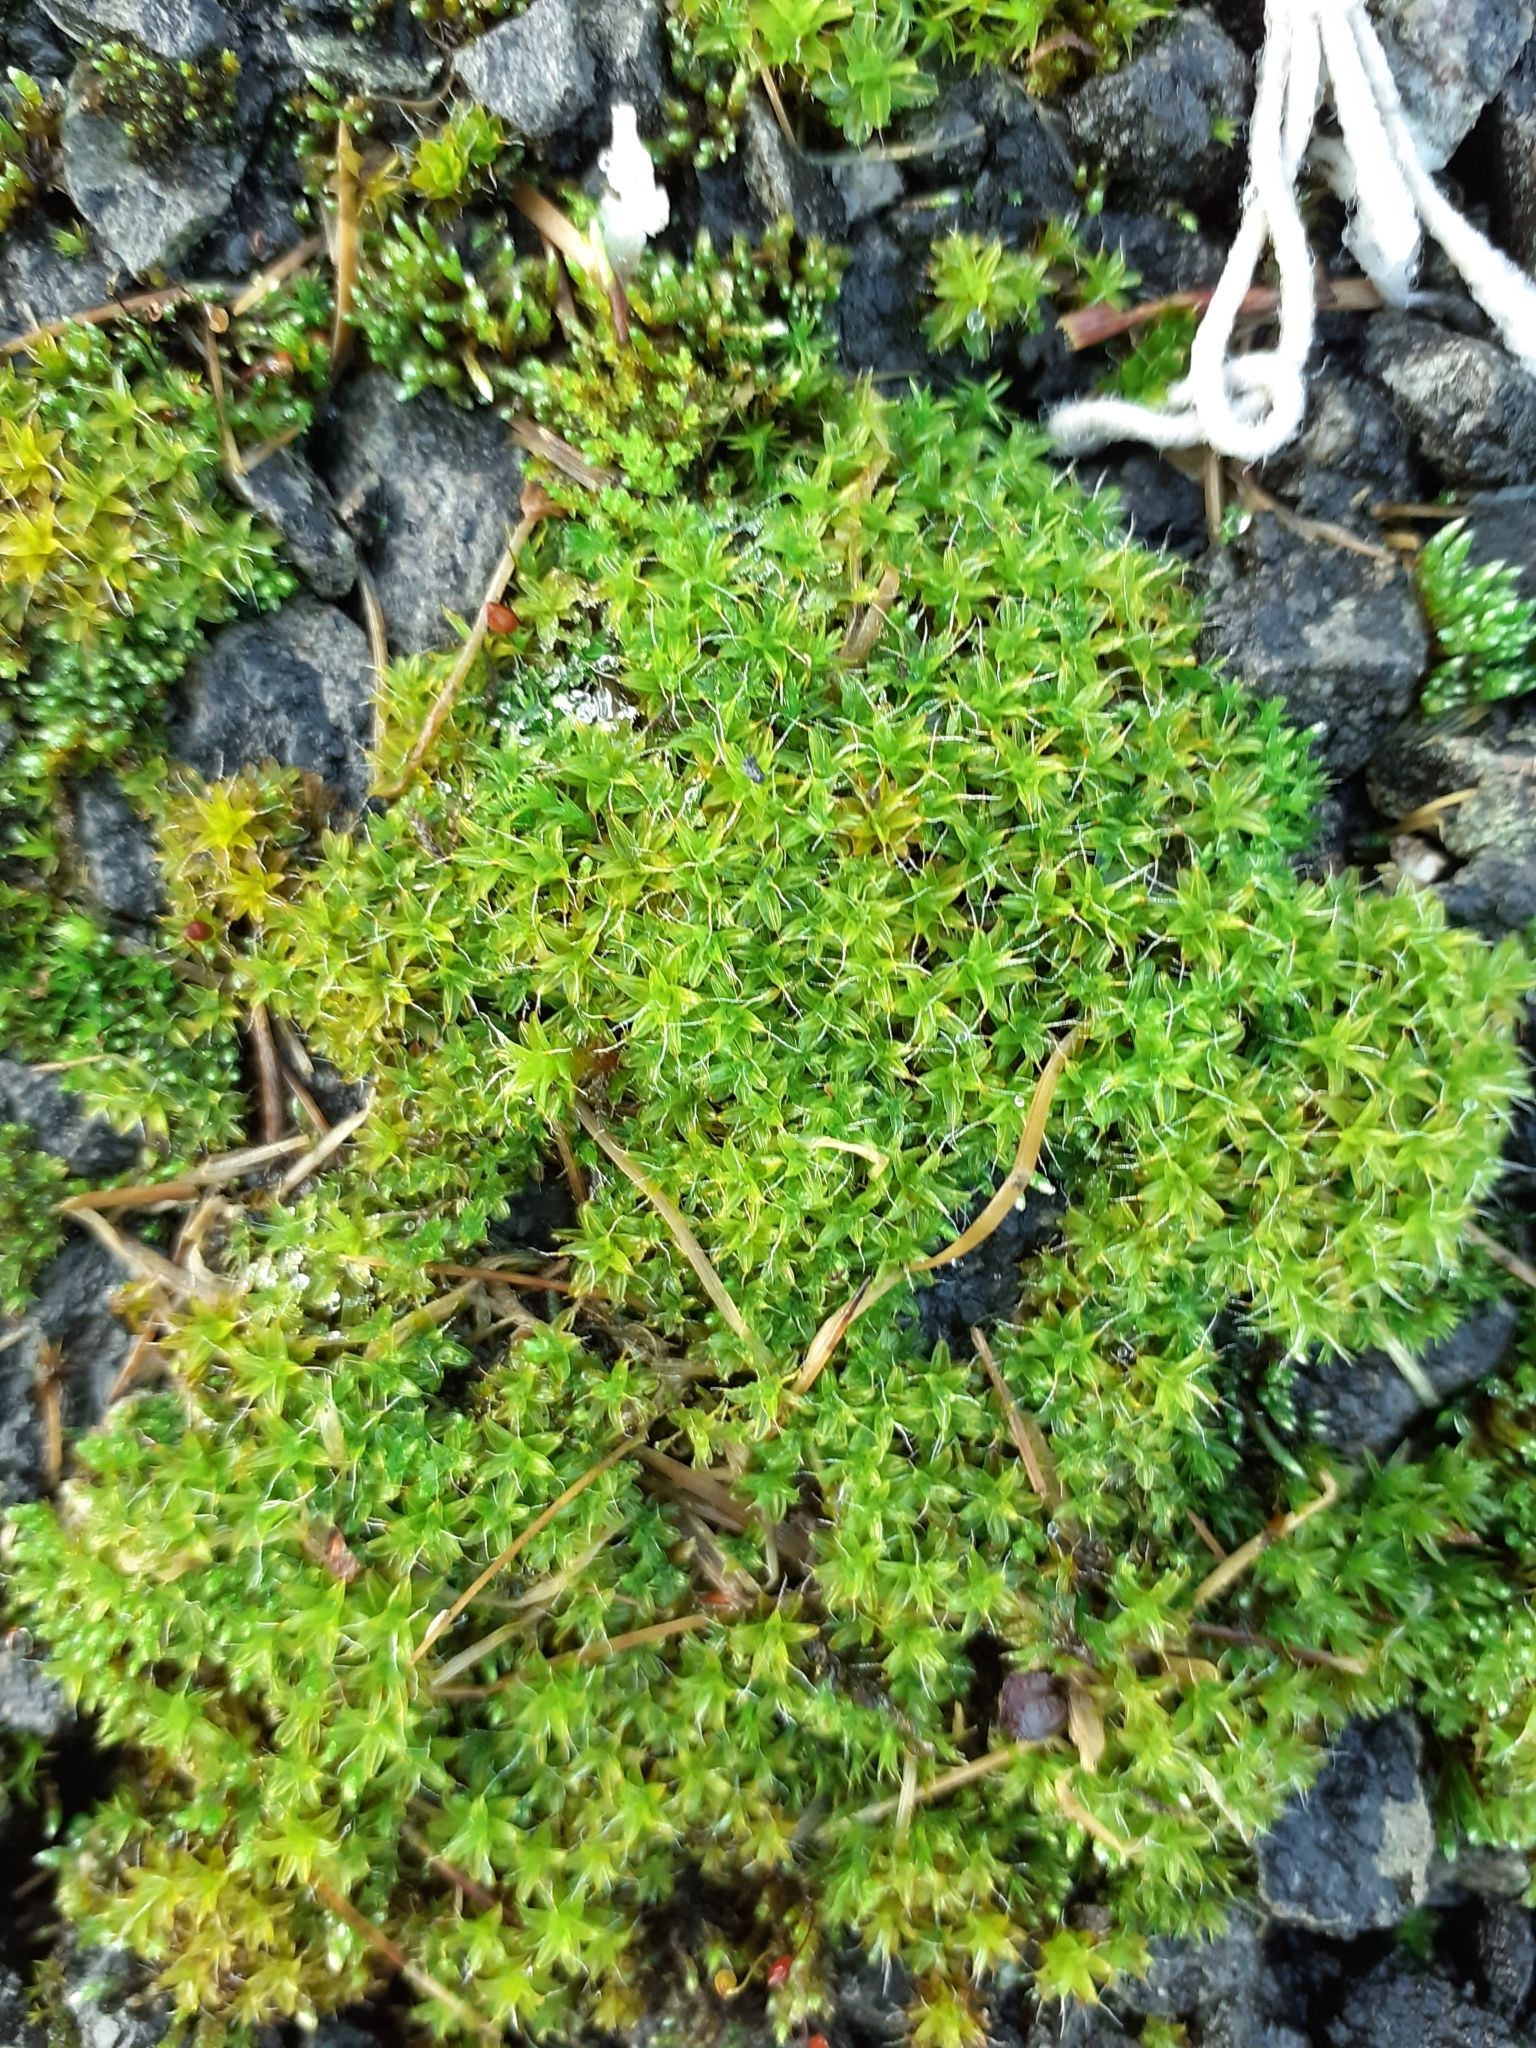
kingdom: Plantae
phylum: Bryophyta
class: Bryopsida
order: Pottiales
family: Pottiaceae
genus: Syntrichia
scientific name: Syntrichia montana
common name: Intermediate screw-moss
